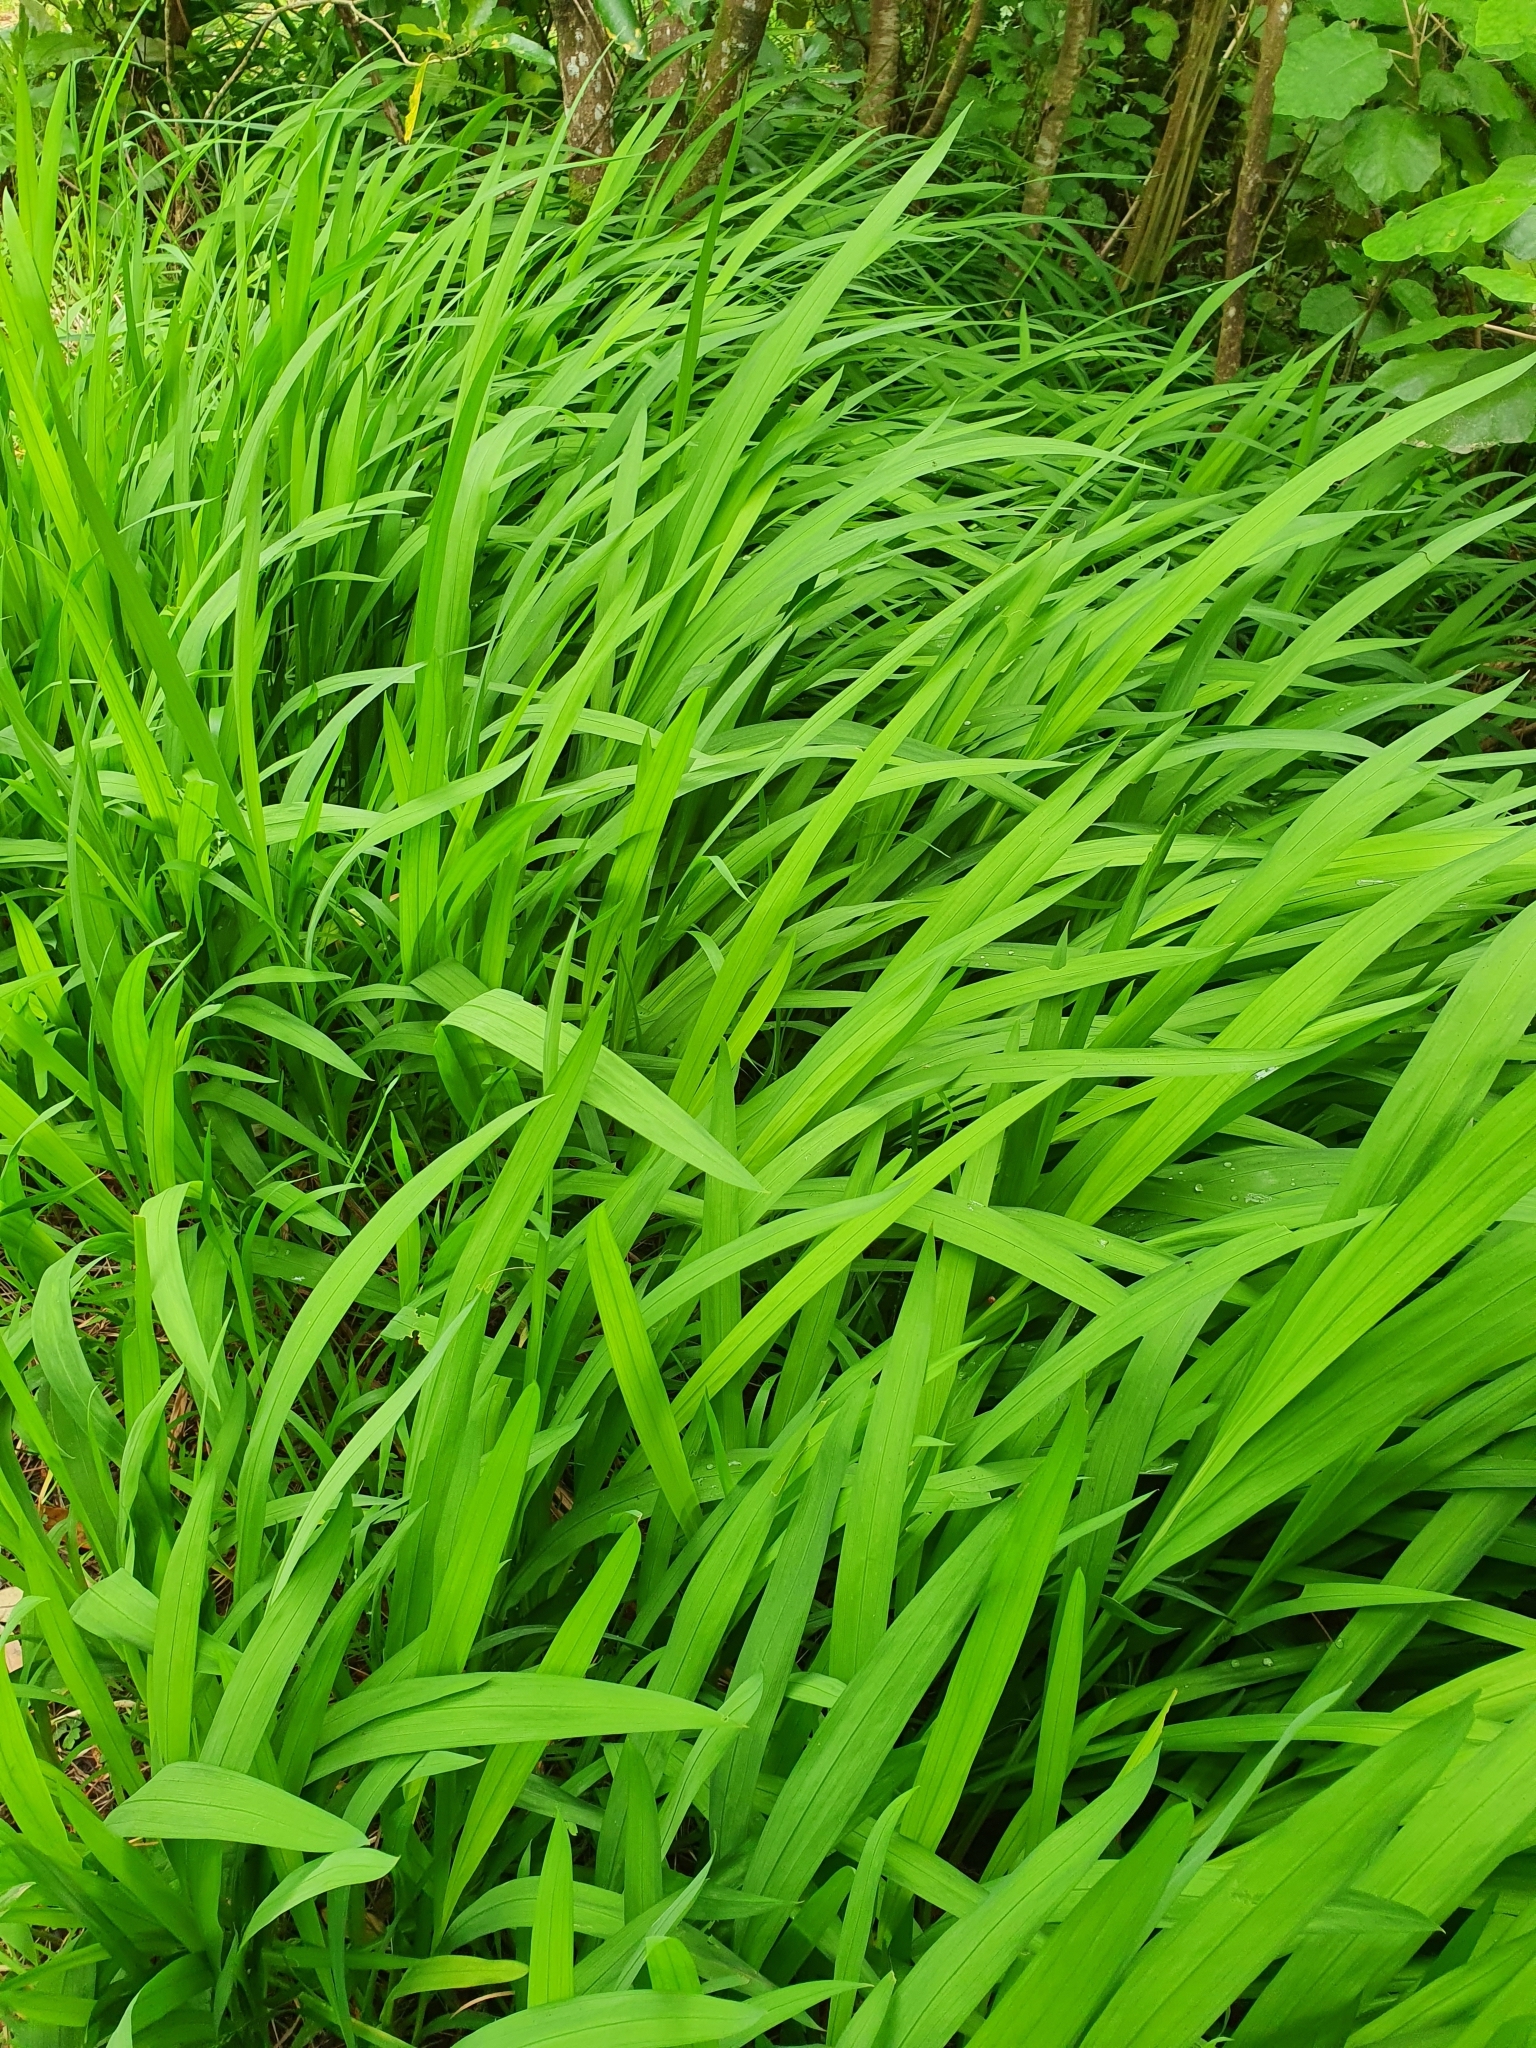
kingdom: Plantae
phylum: Tracheophyta
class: Liliopsida
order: Asparagales
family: Iridaceae
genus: Crocosmia
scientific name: Crocosmia crocosmiiflora
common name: Montbretia
